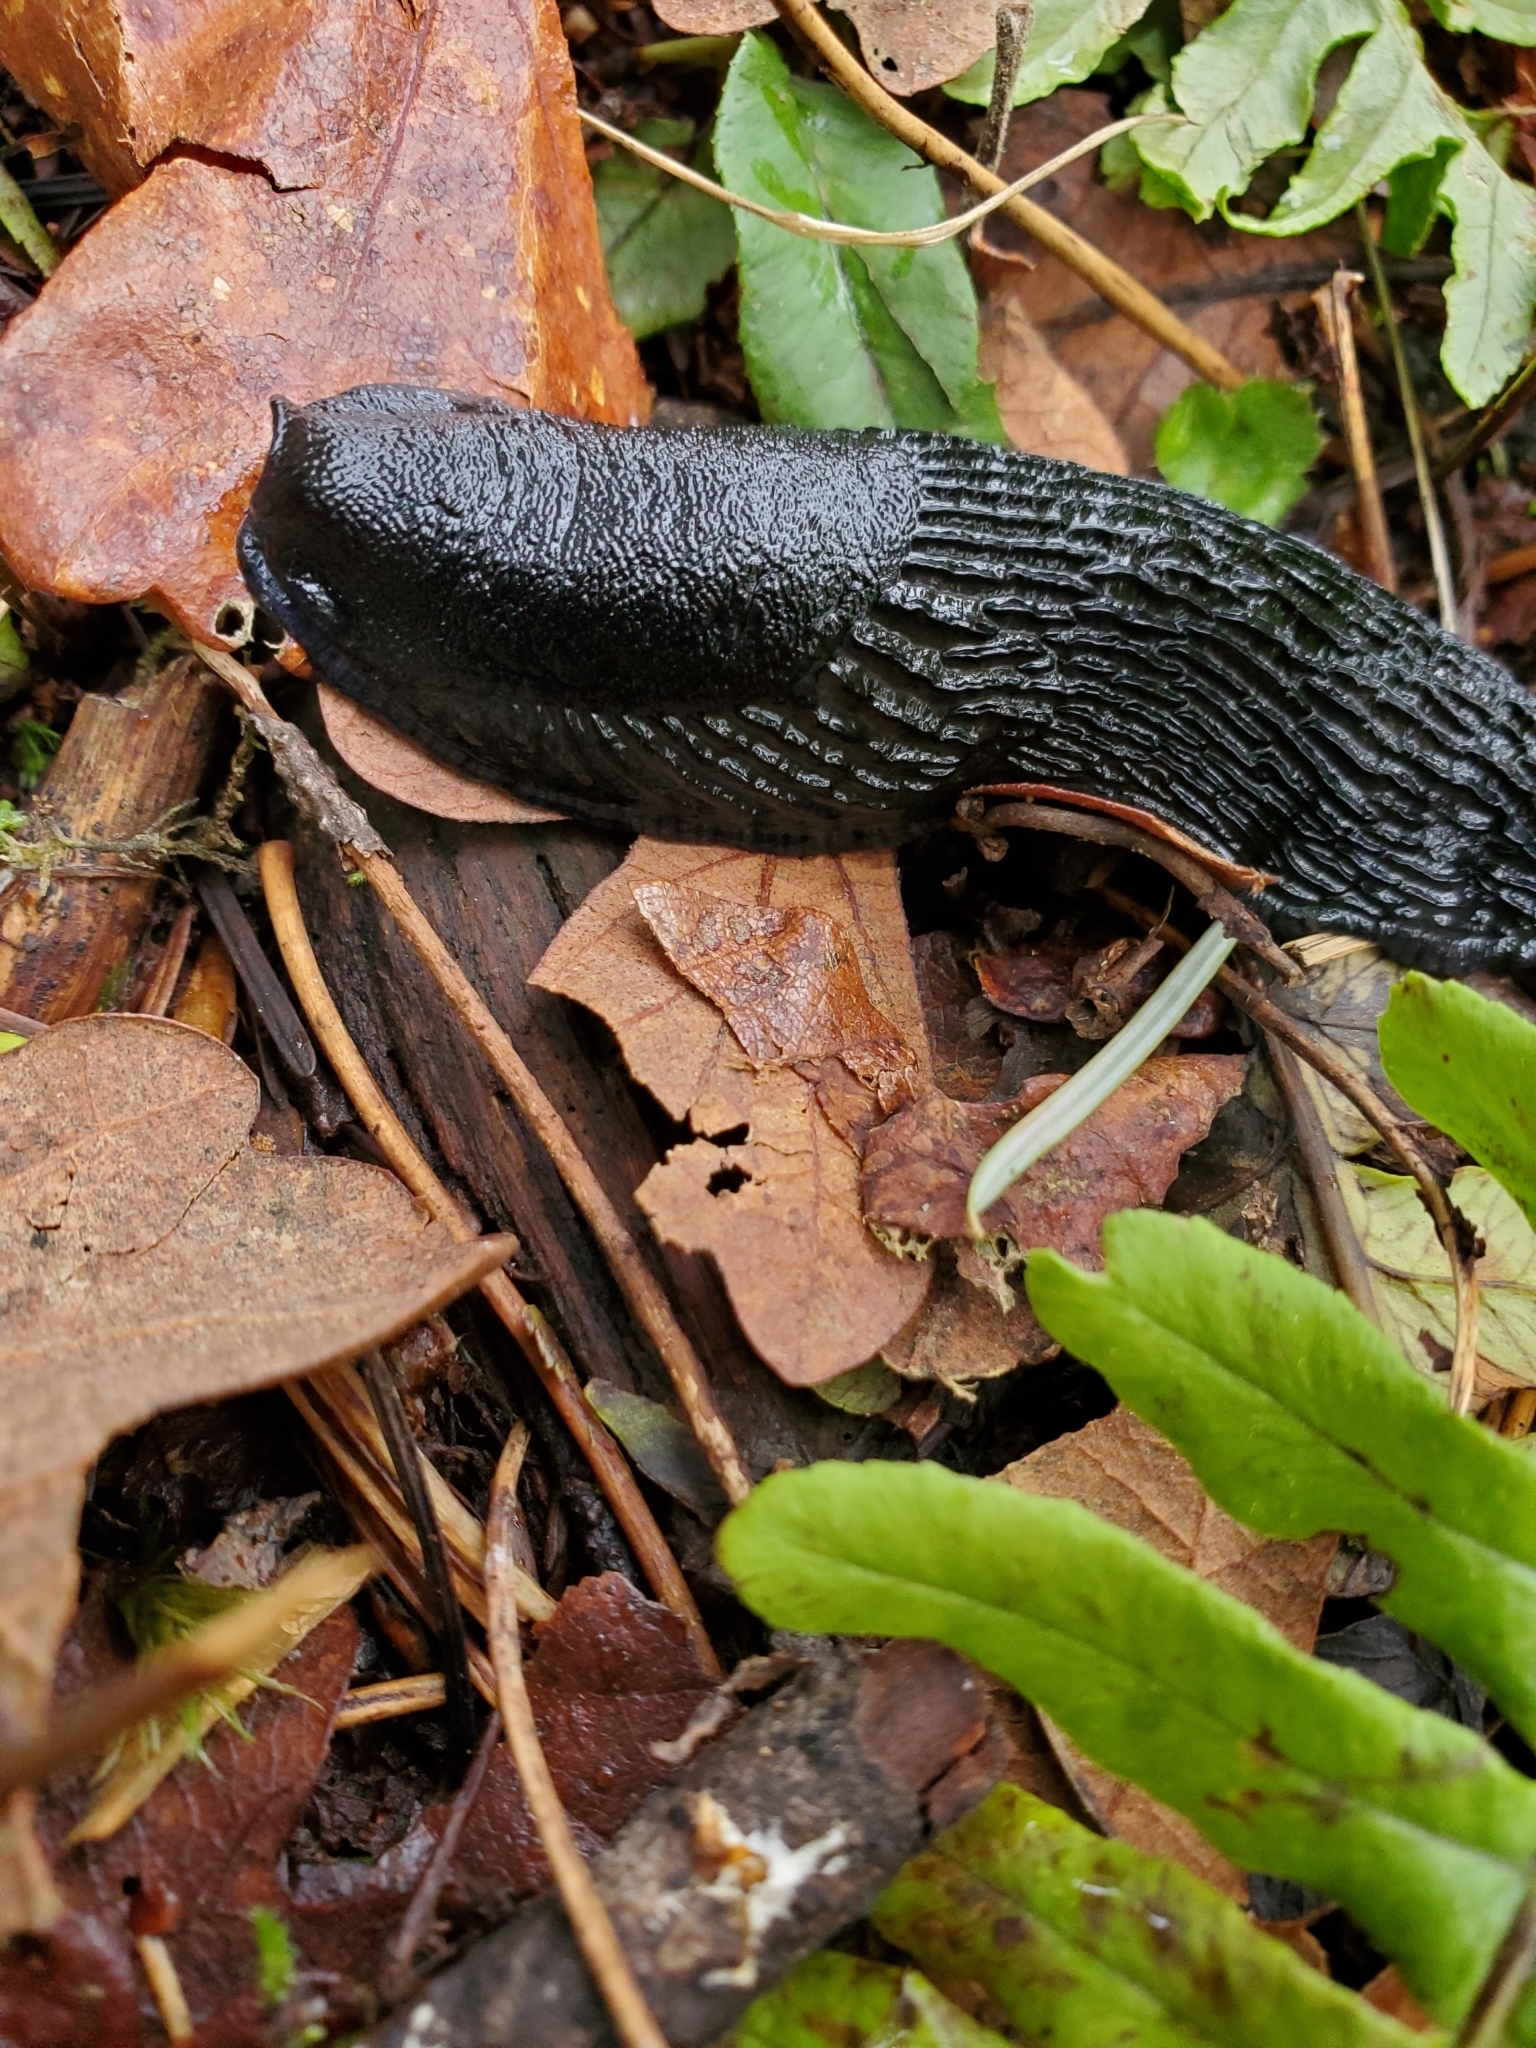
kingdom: Animalia
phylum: Mollusca
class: Gastropoda
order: Stylommatophora
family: Arionidae
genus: Arion
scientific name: Arion rufus
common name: Chocolate arion
